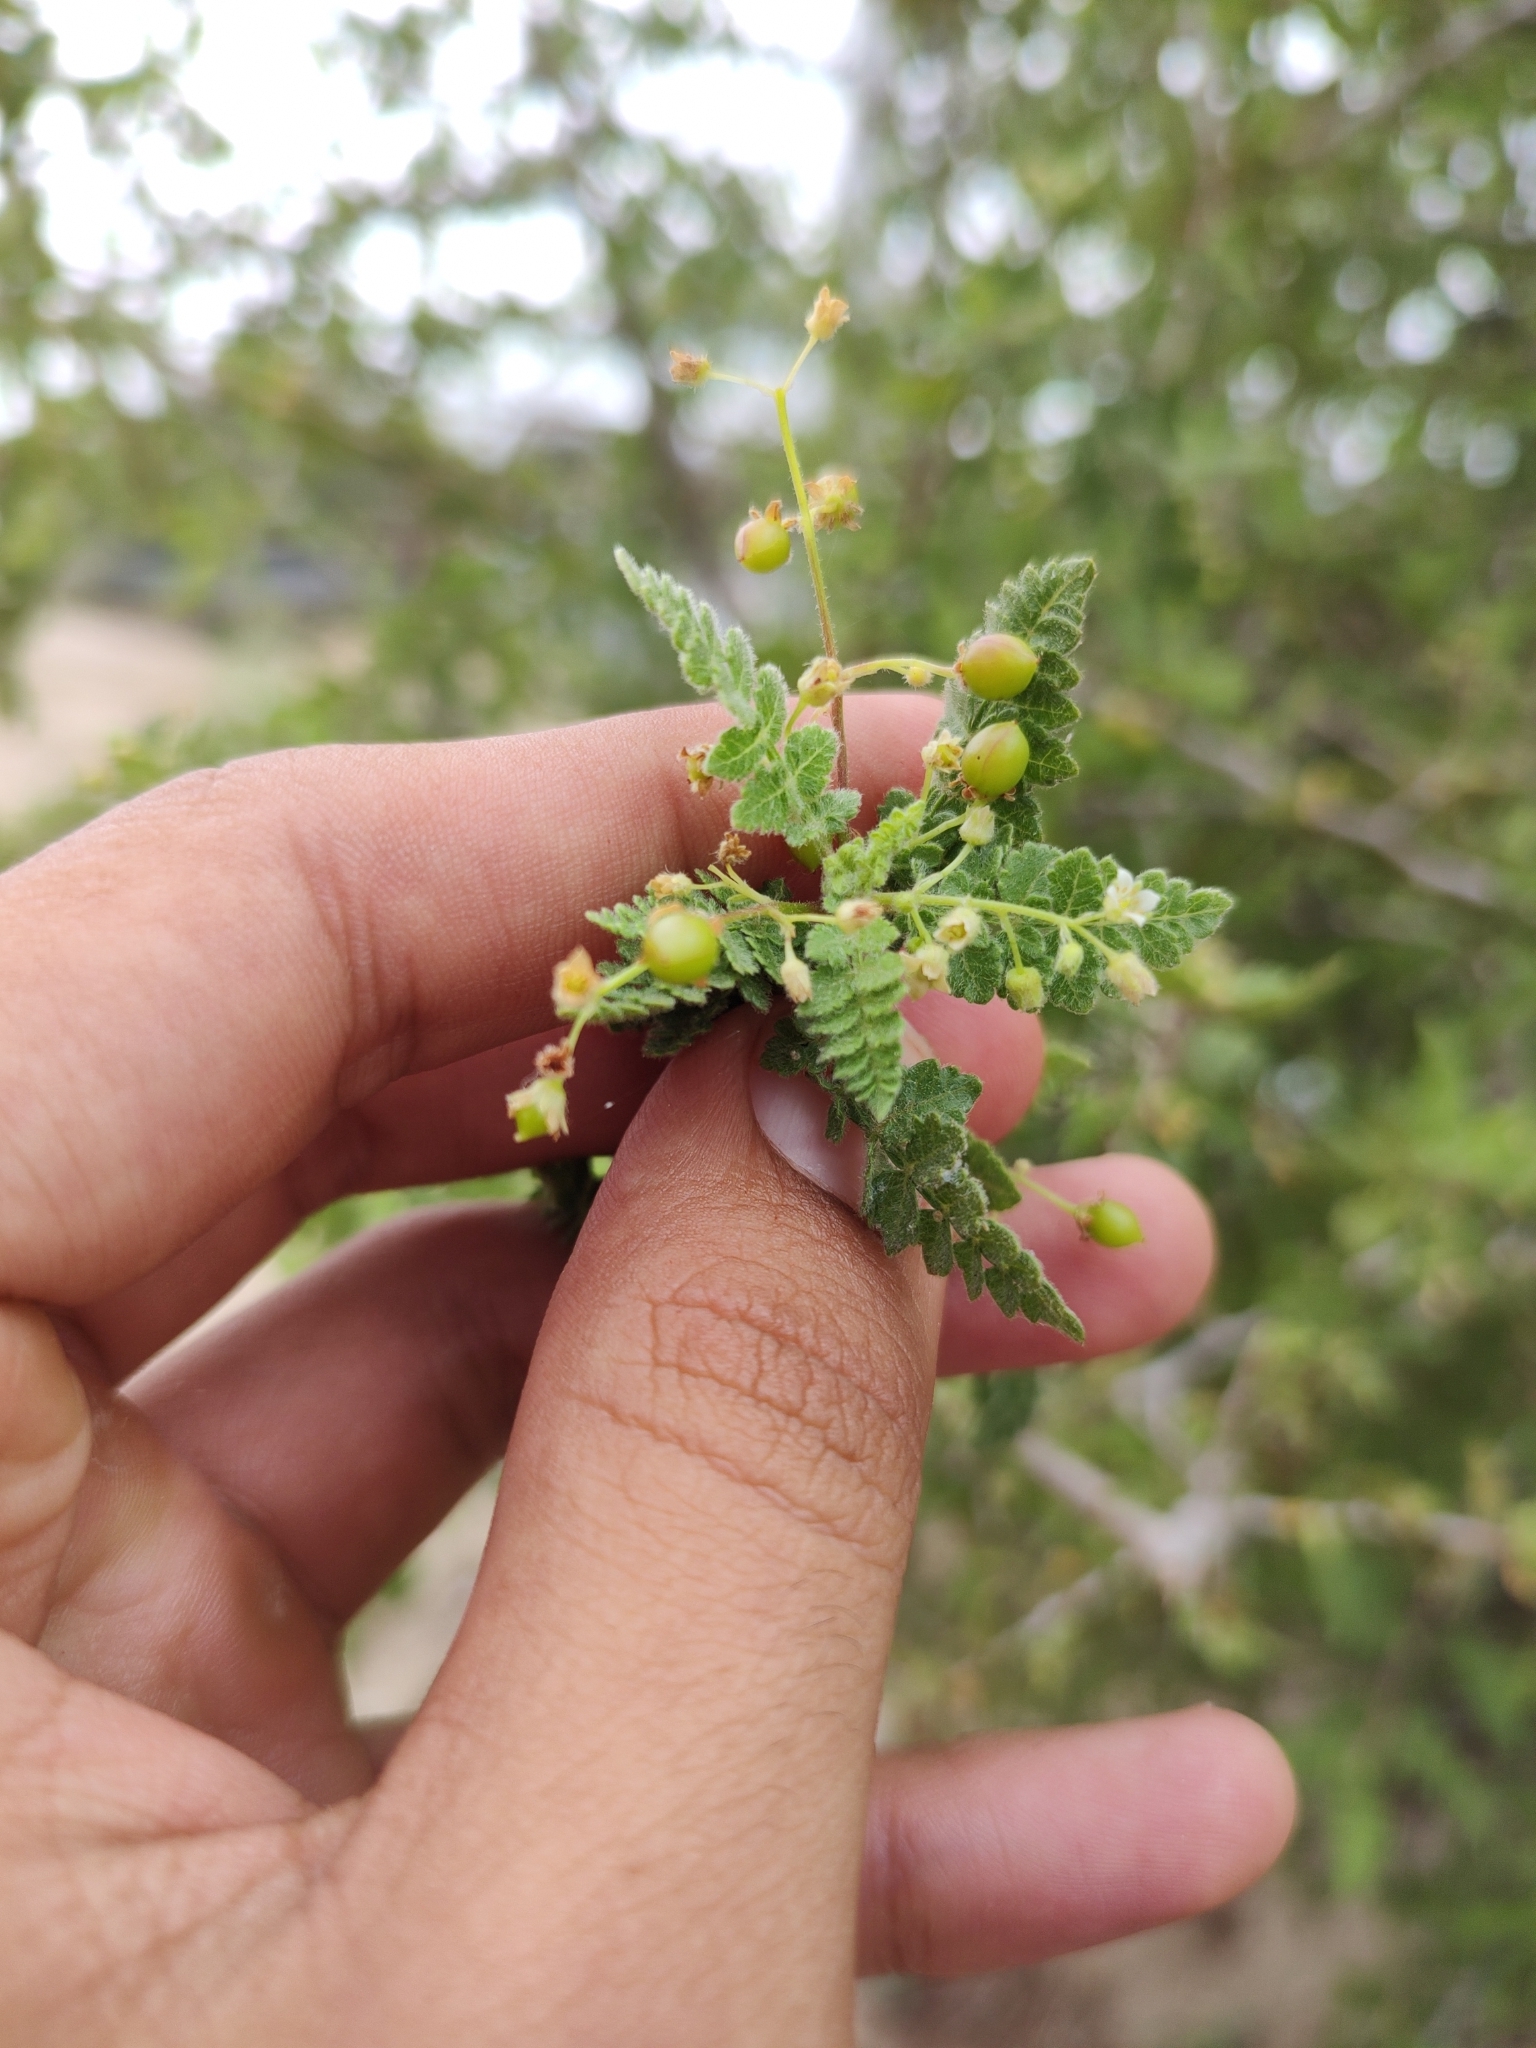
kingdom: Plantae
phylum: Tracheophyta
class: Magnoliopsida
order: Sapindales
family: Burseraceae
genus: Bursera
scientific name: Bursera filicifolia
